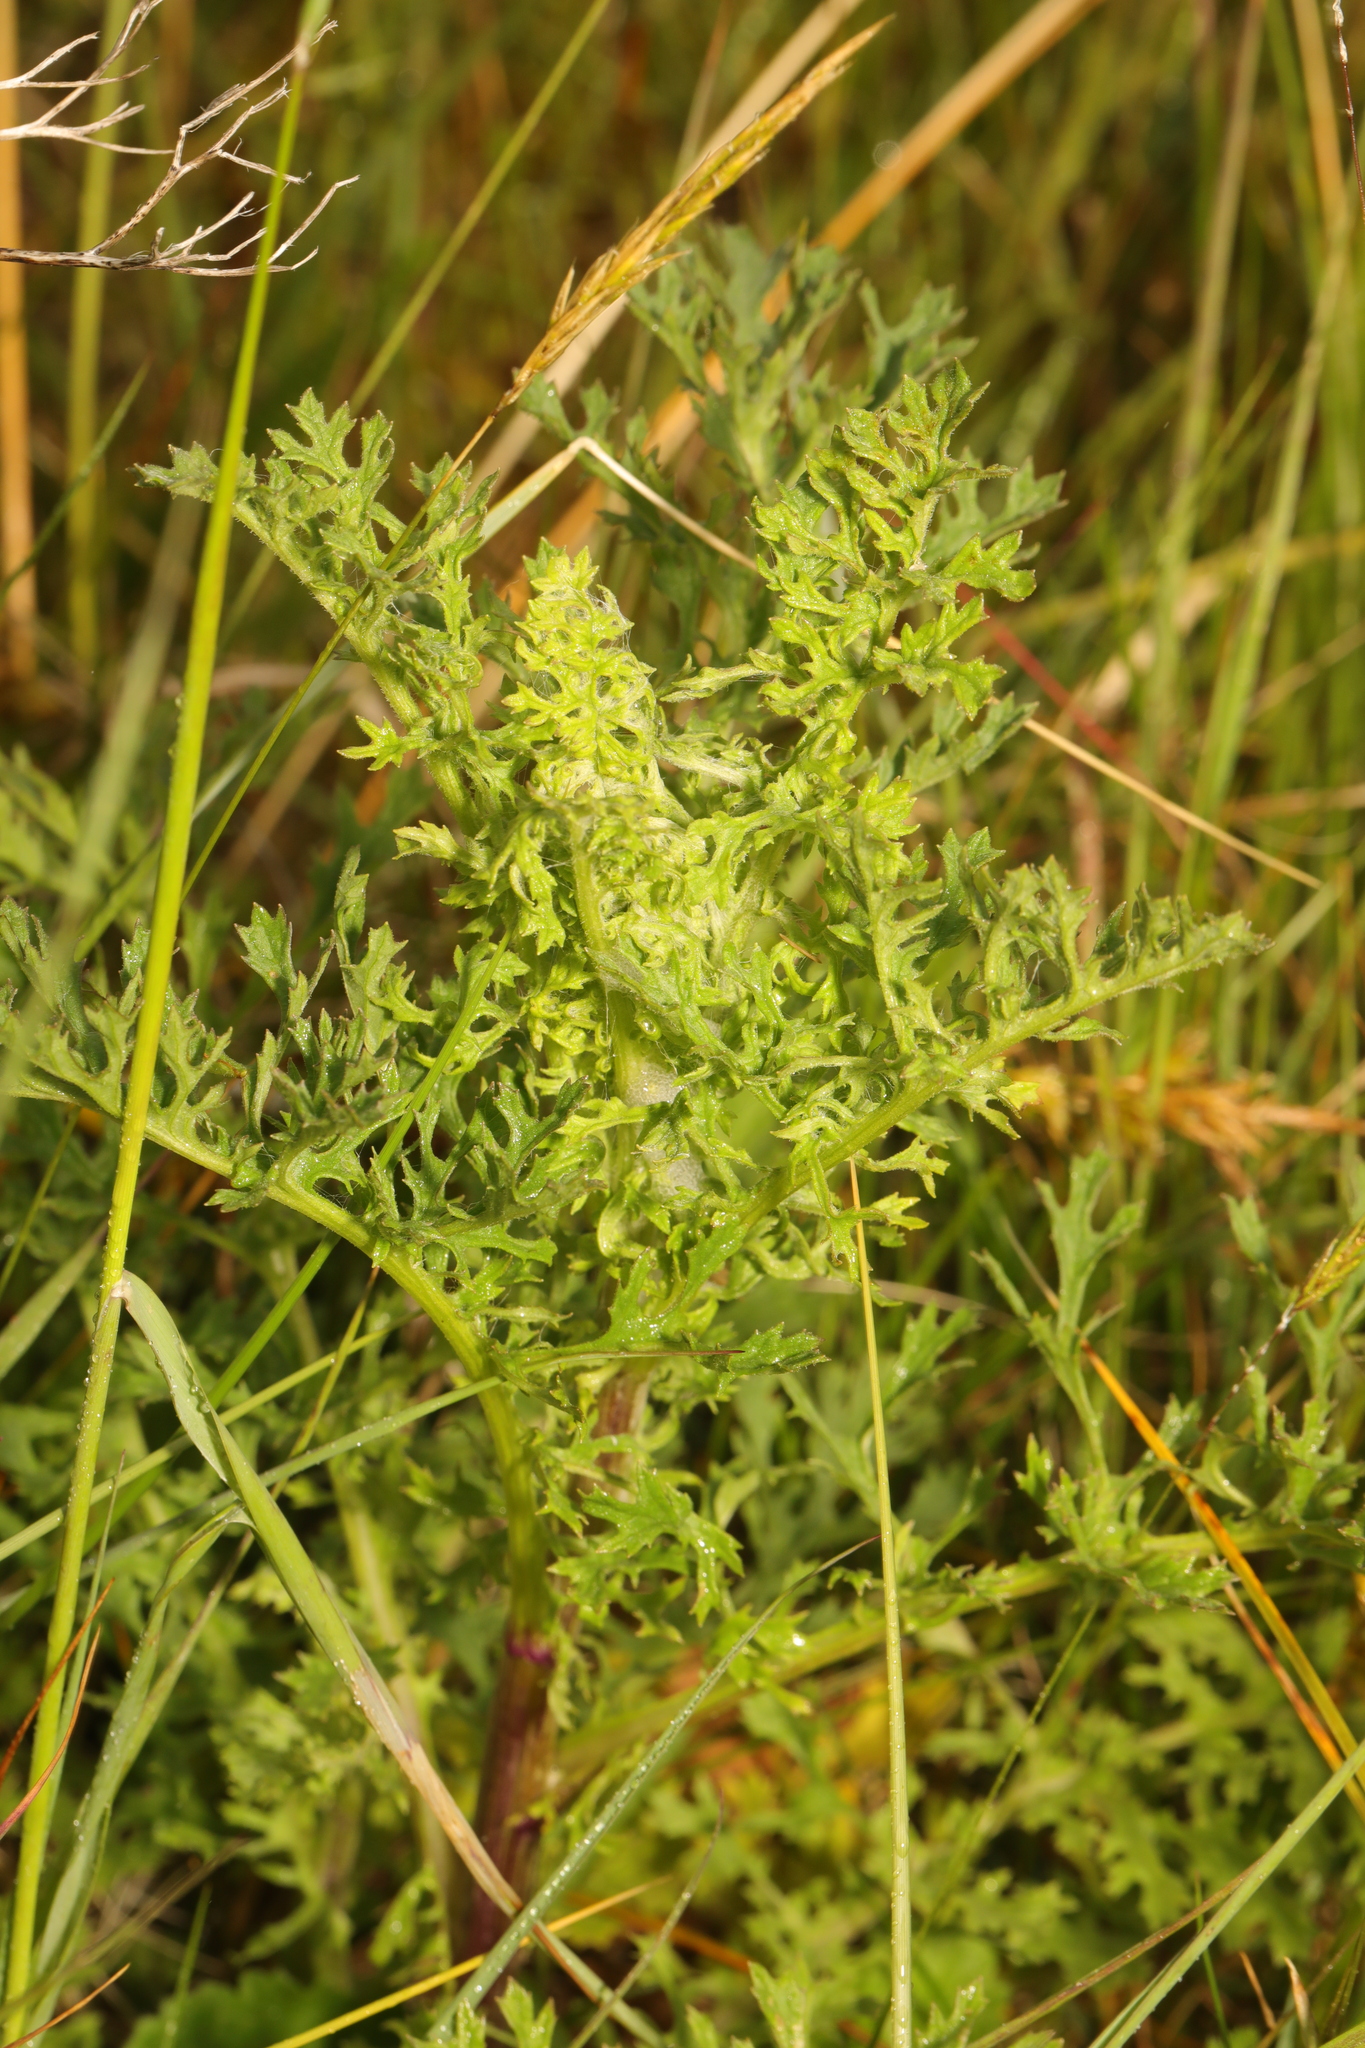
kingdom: Plantae
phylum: Tracheophyta
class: Magnoliopsida
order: Asterales
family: Asteraceae
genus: Jacobaea
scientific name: Jacobaea vulgaris
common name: Stinking willie
